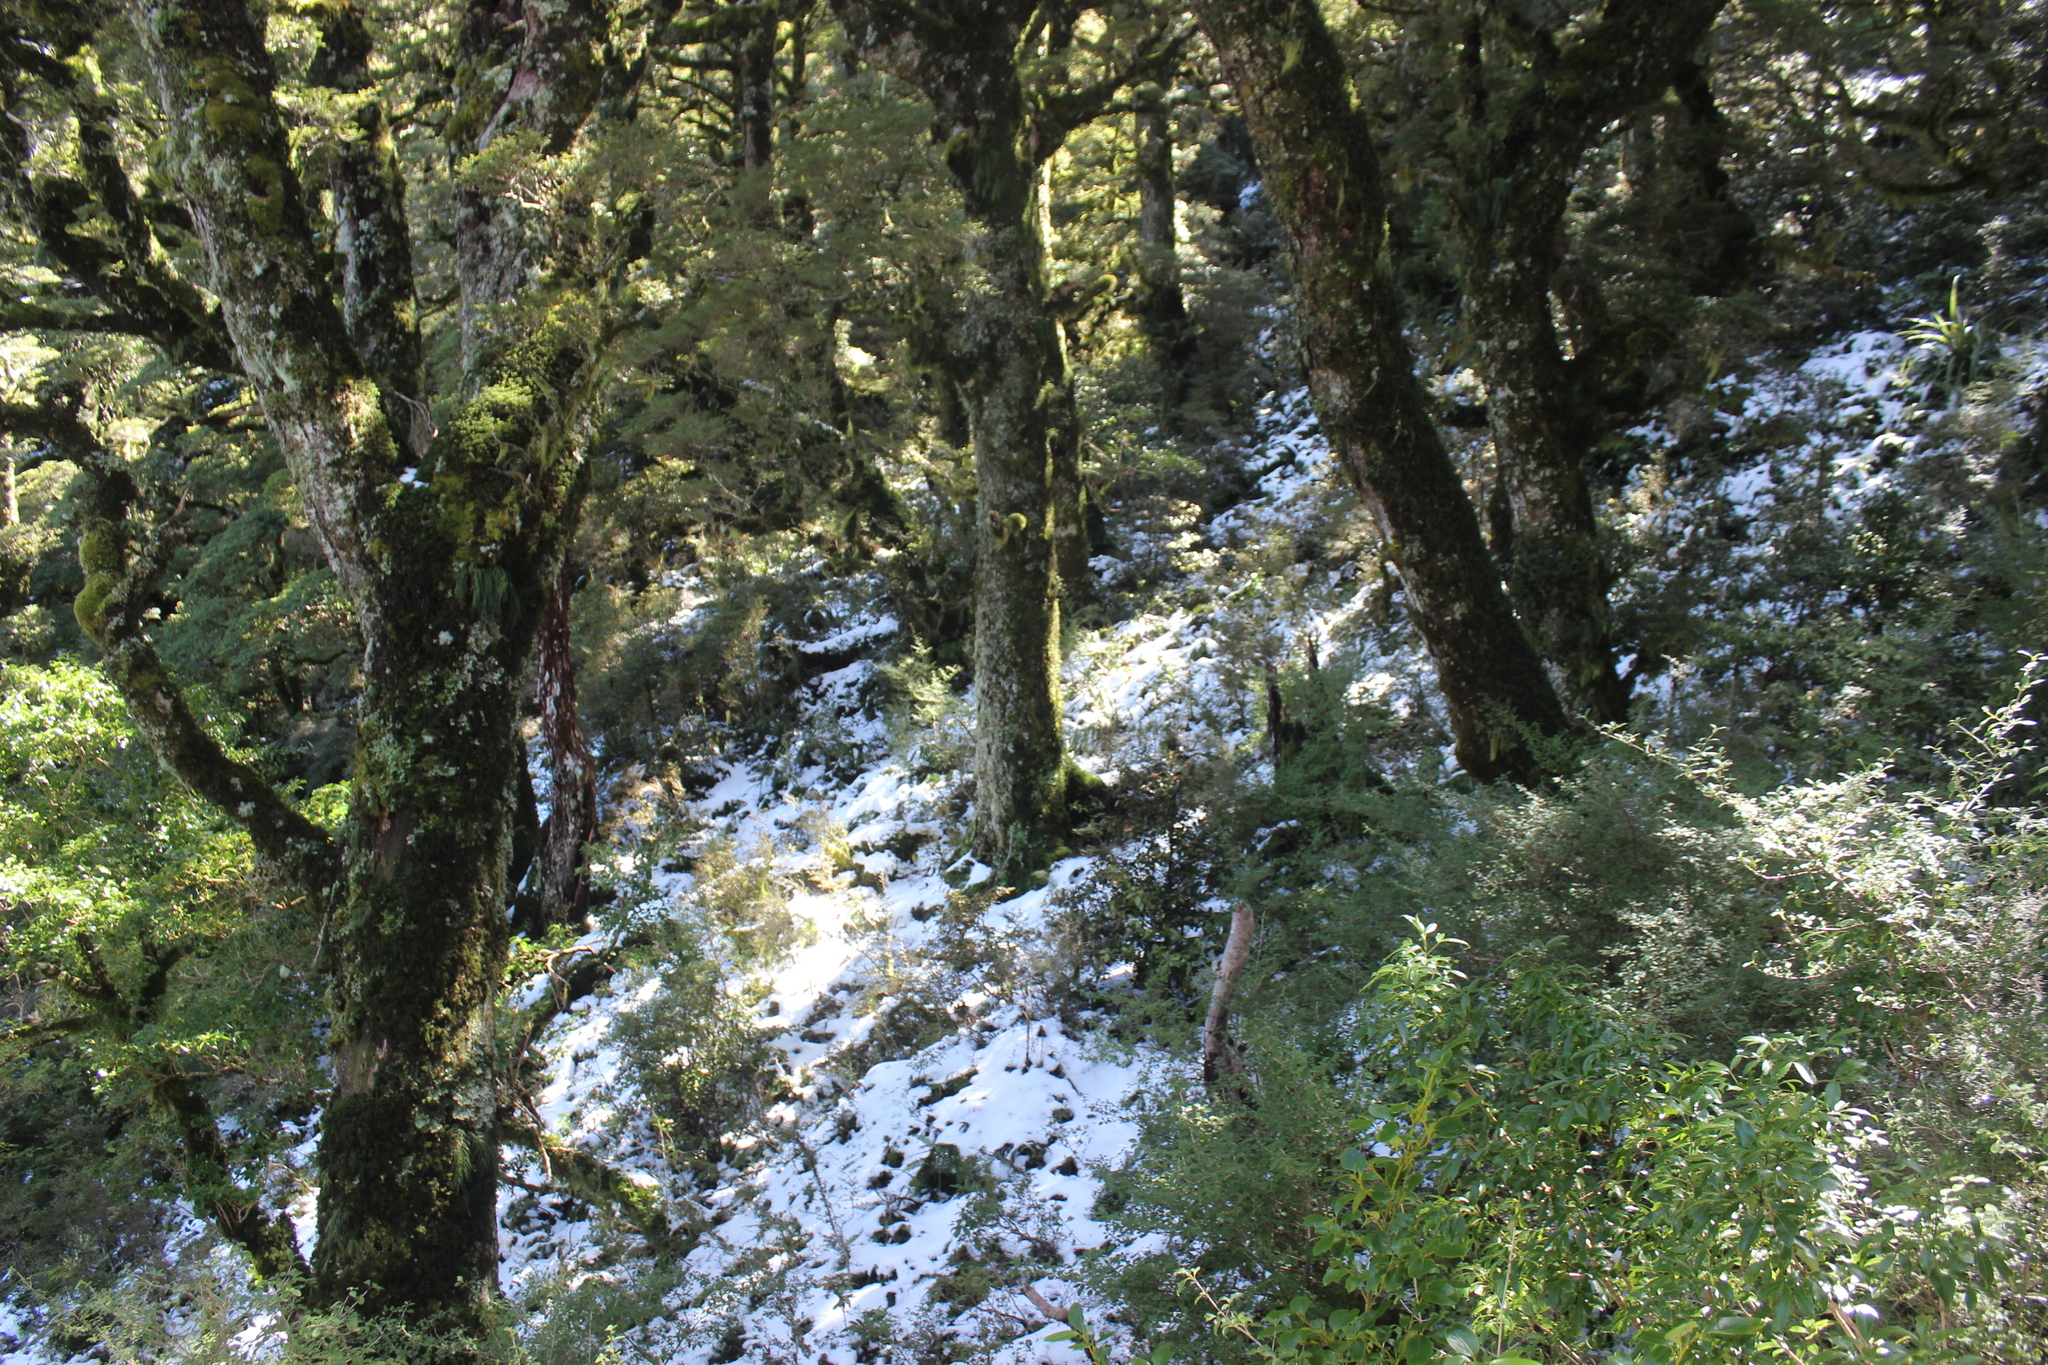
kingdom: Plantae
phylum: Tracheophyta
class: Magnoliopsida
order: Fagales
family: Nothofagaceae
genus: Nothofagus
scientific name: Nothofagus menziesii
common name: Silver beech
